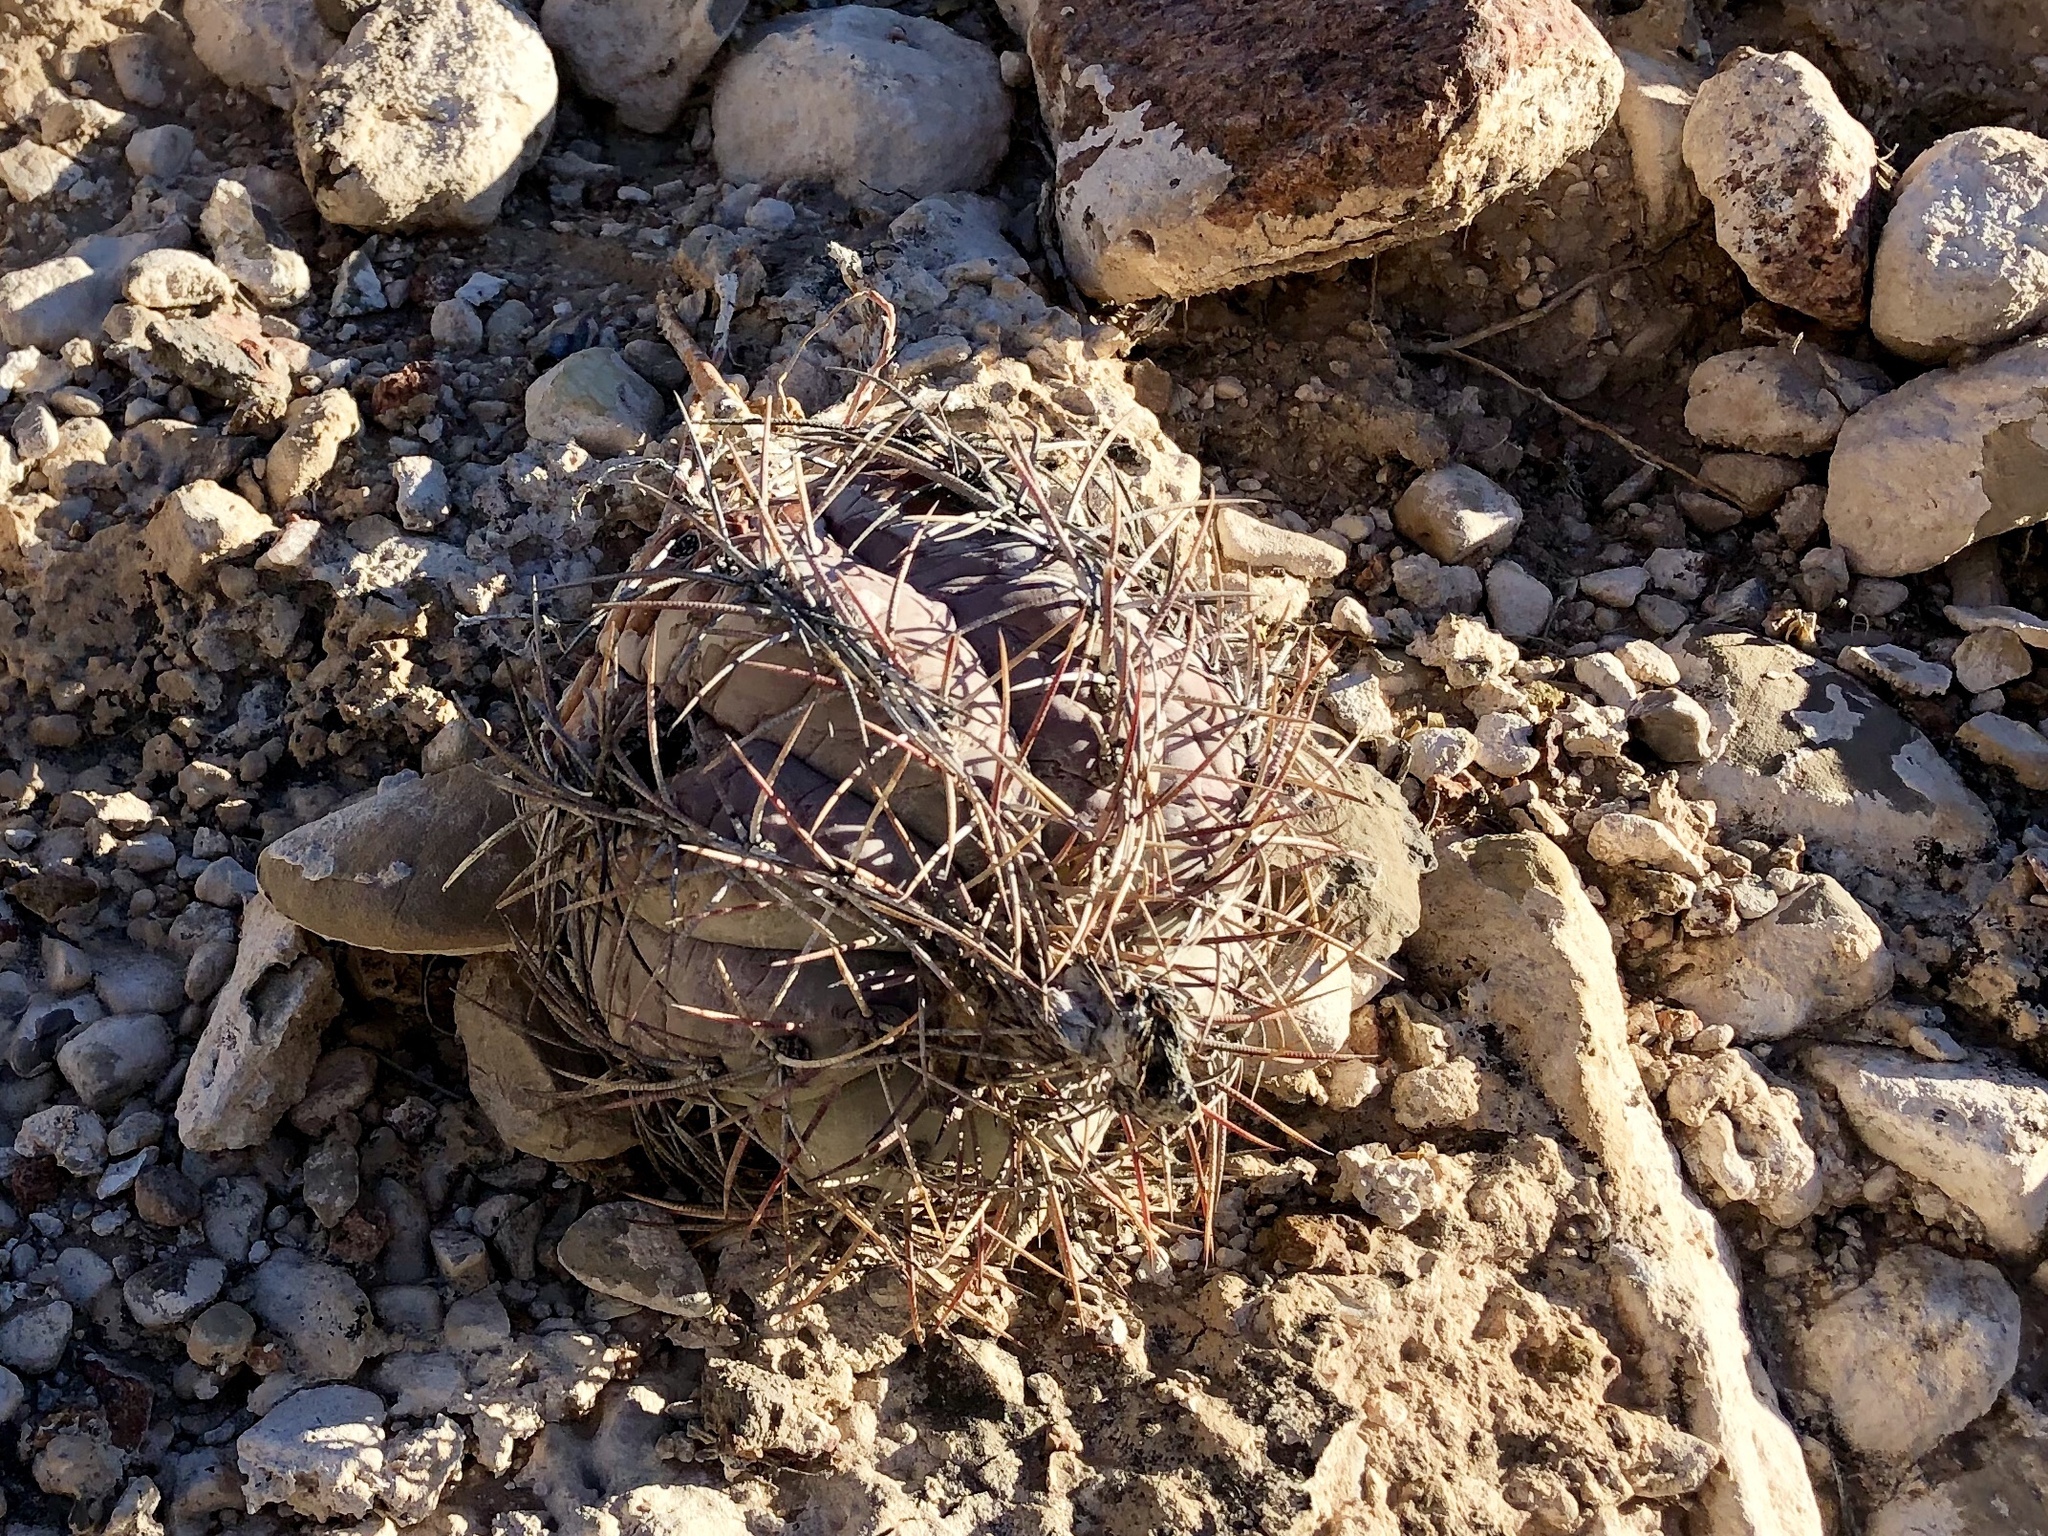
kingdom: Plantae
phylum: Tracheophyta
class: Magnoliopsida
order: Caryophyllales
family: Cactaceae
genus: Echinocactus
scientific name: Echinocactus horizonthalonius
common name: Devilshead
